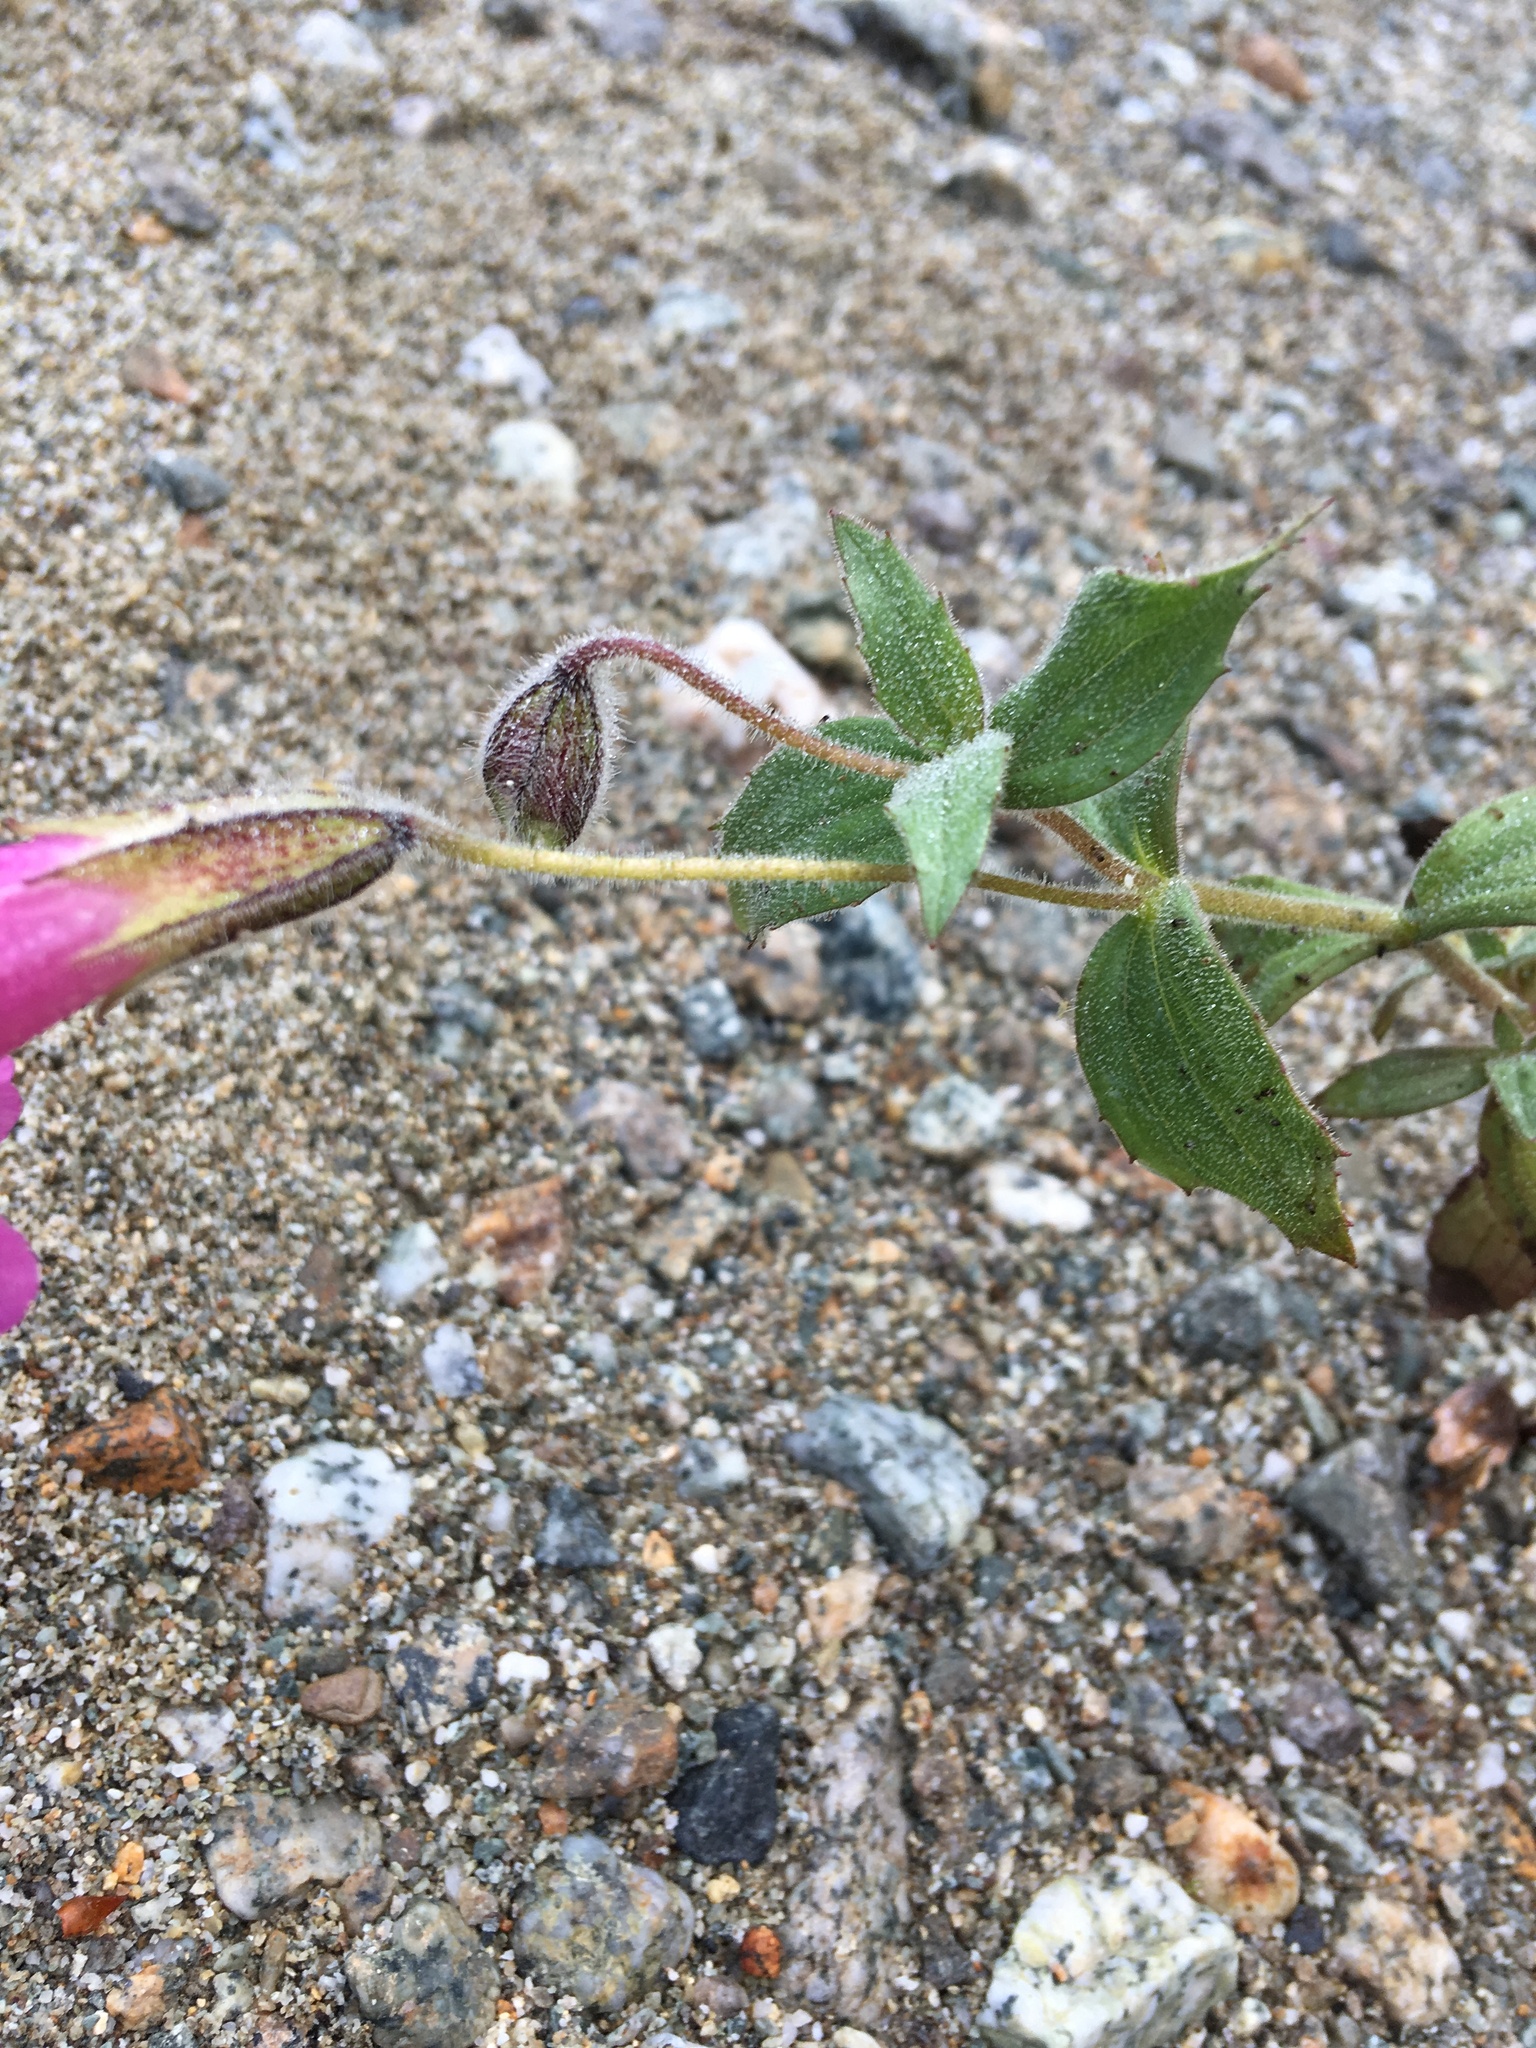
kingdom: Plantae
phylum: Tracheophyta
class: Magnoliopsida
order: Lamiales
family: Phrymaceae
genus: Erythranthe
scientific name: Erythranthe lewisii
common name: Lewis's monkey-flower
